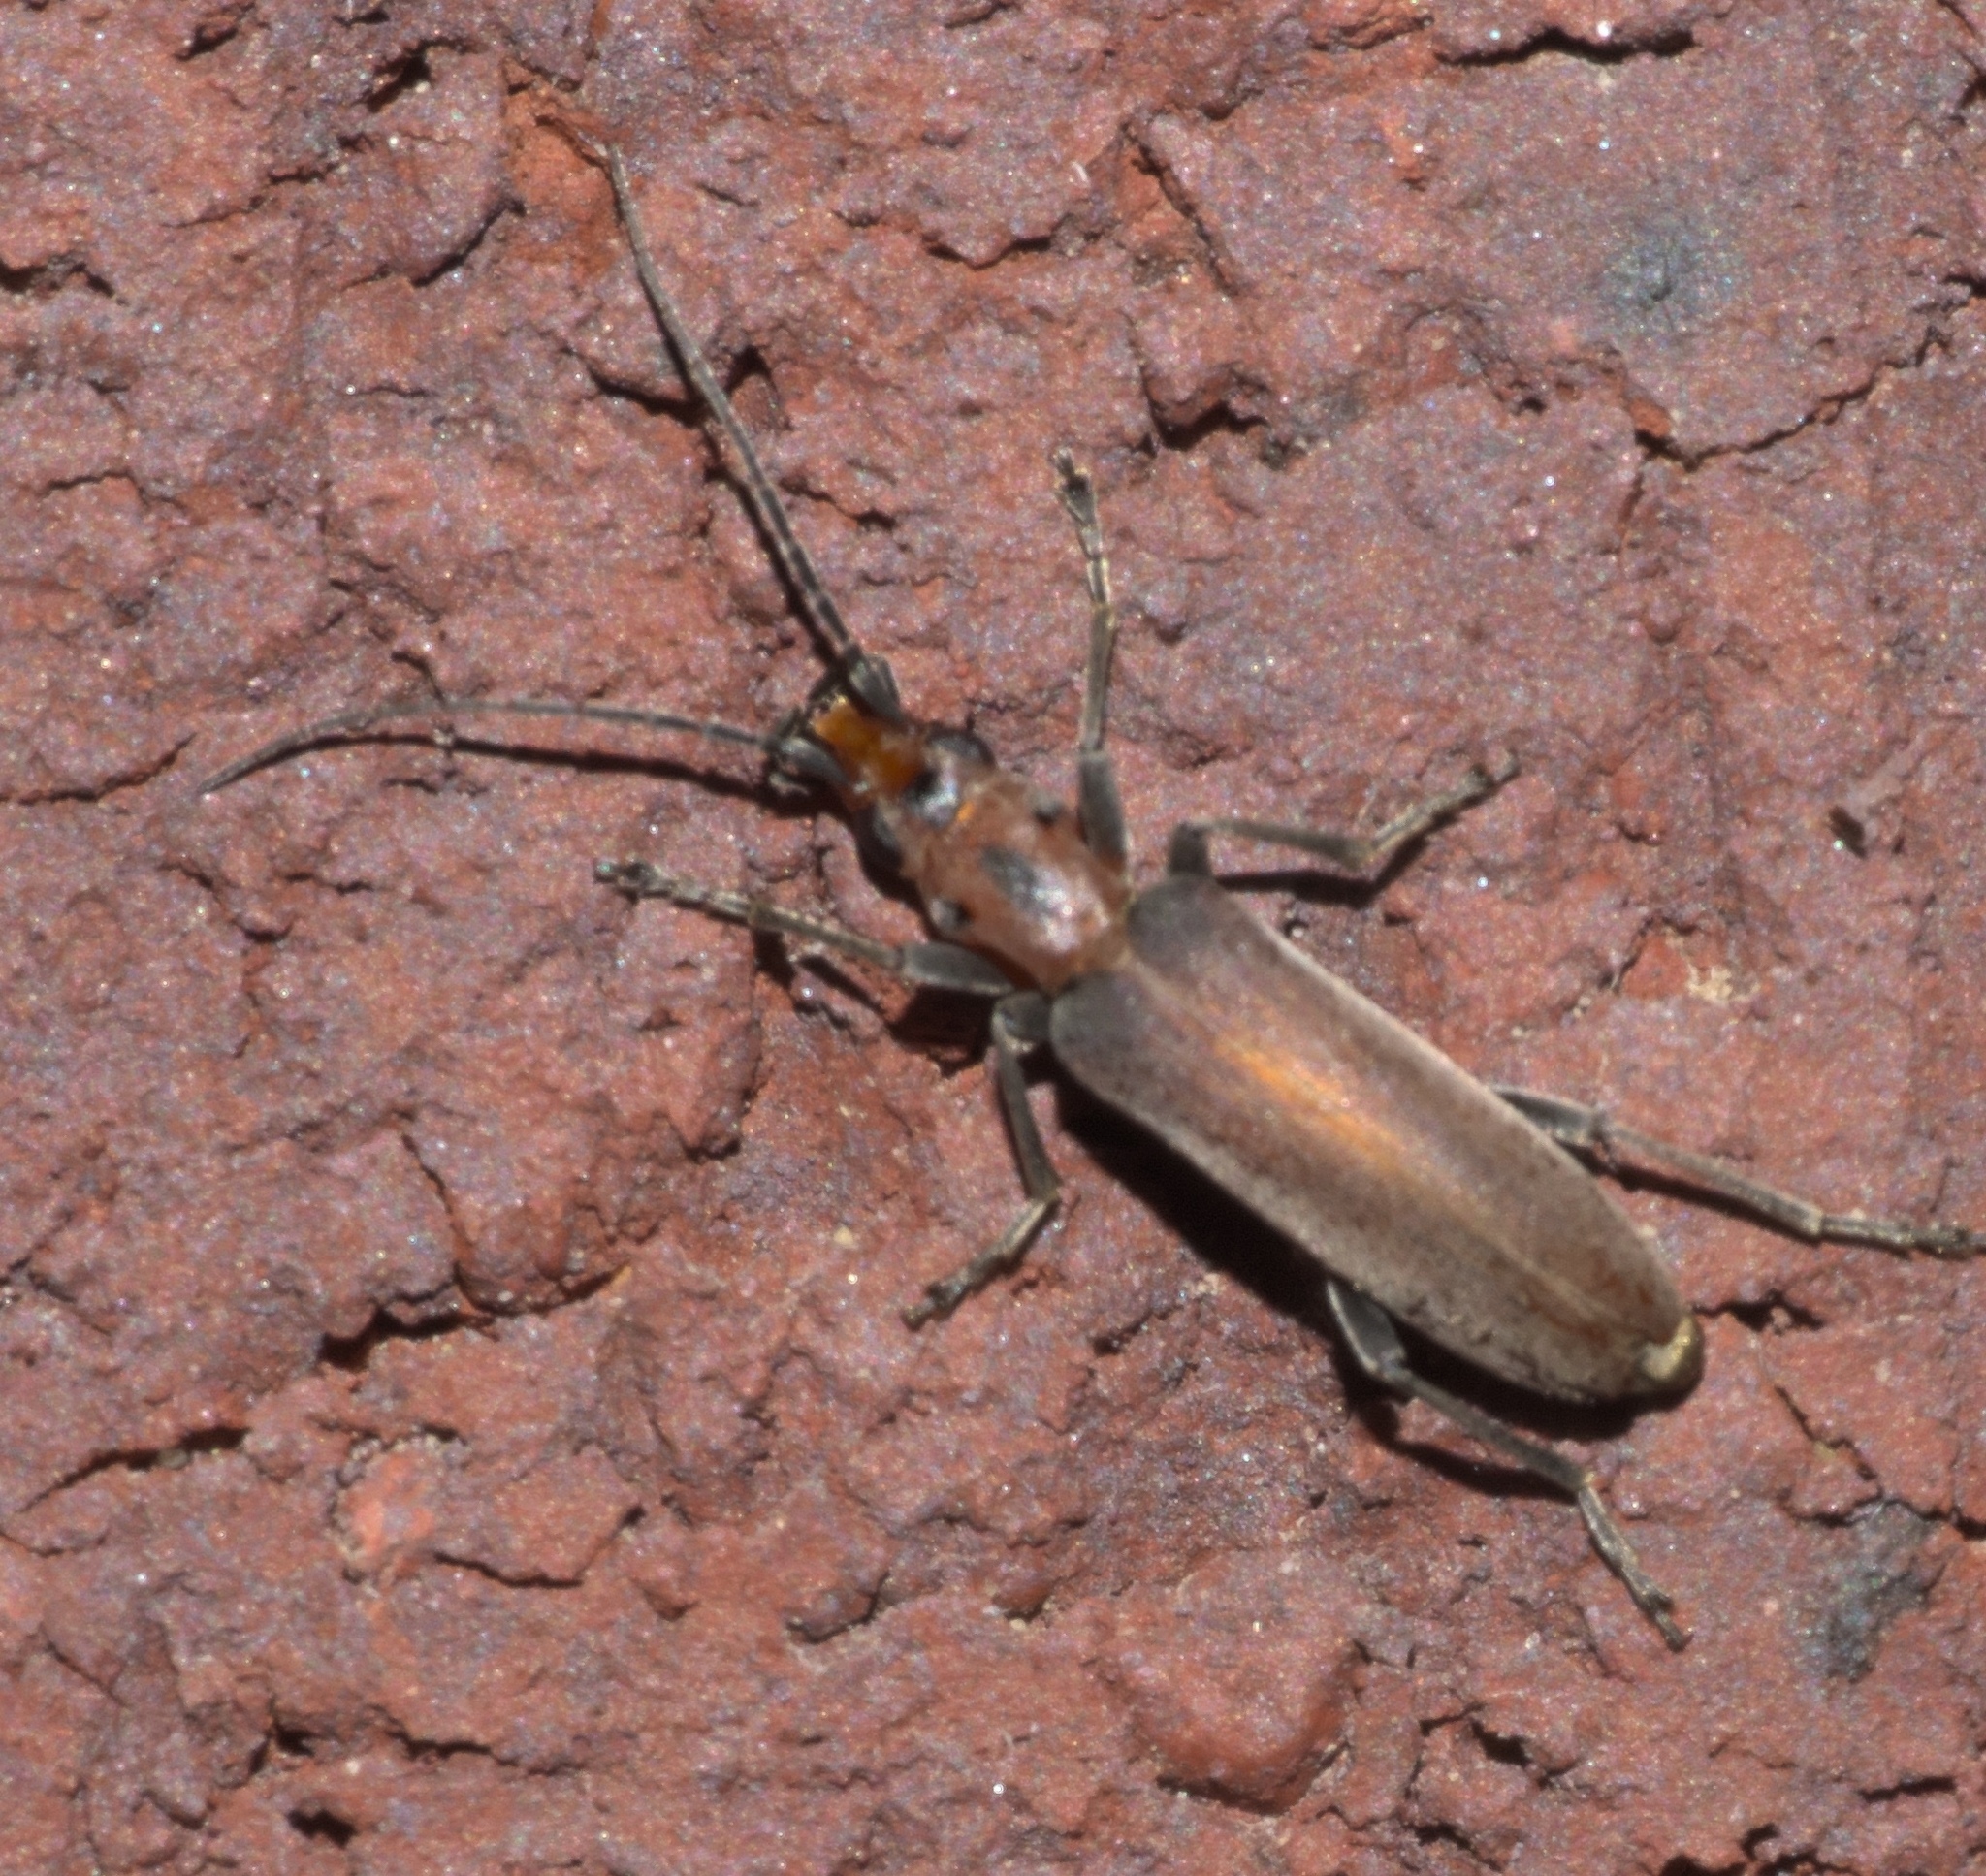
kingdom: Animalia
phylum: Arthropoda
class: Insecta
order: Coleoptera
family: Oedemeridae
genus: Oxacis
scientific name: Oxacis trimaculata
